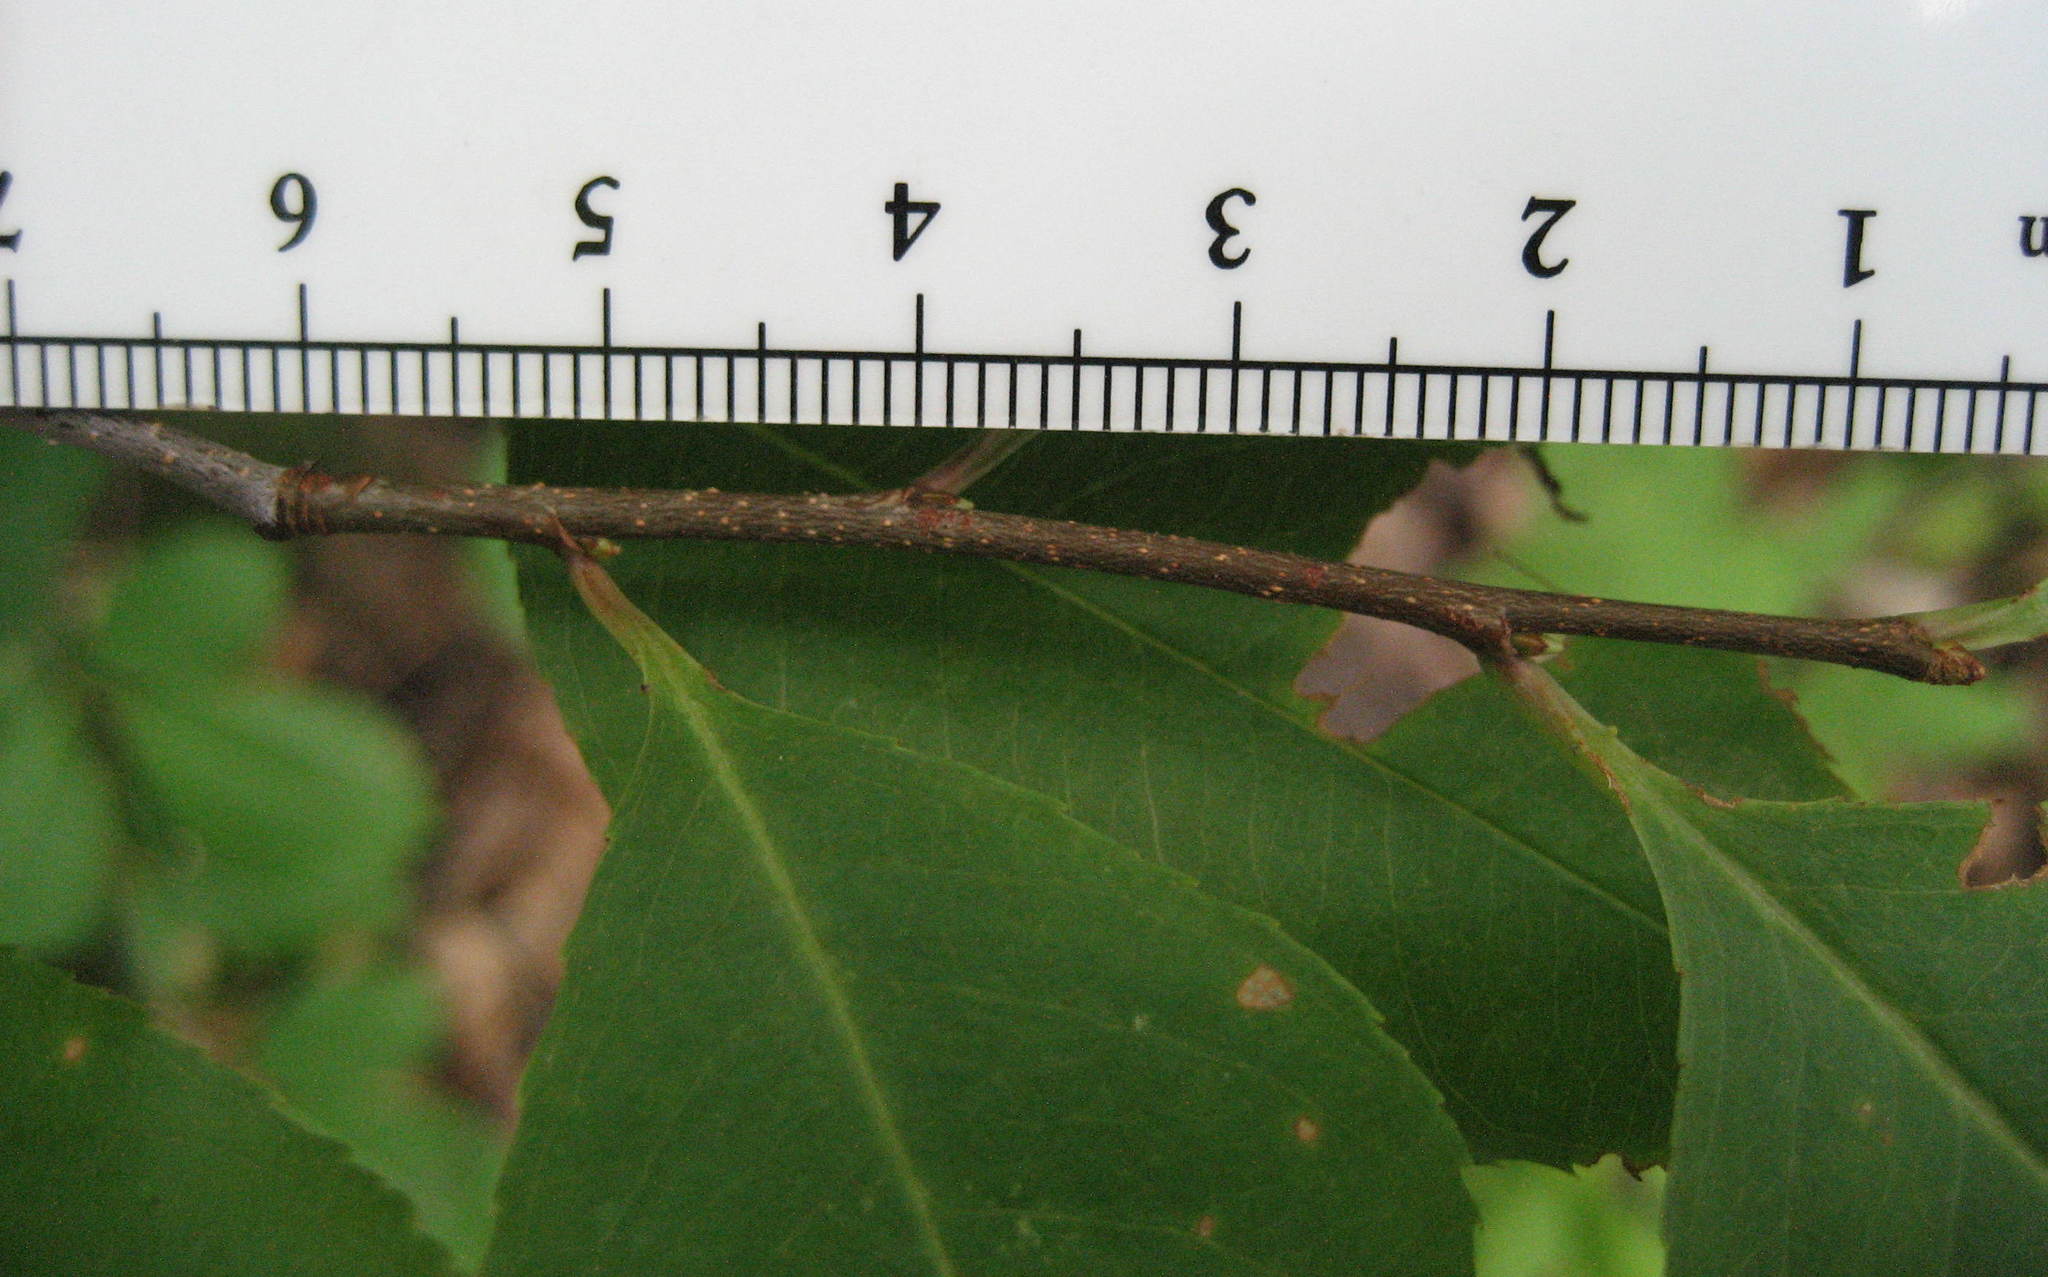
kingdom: Plantae
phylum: Tracheophyta
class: Magnoliopsida
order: Rosales
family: Rosaceae
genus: Prunus
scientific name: Prunus serotina
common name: Black cherry
